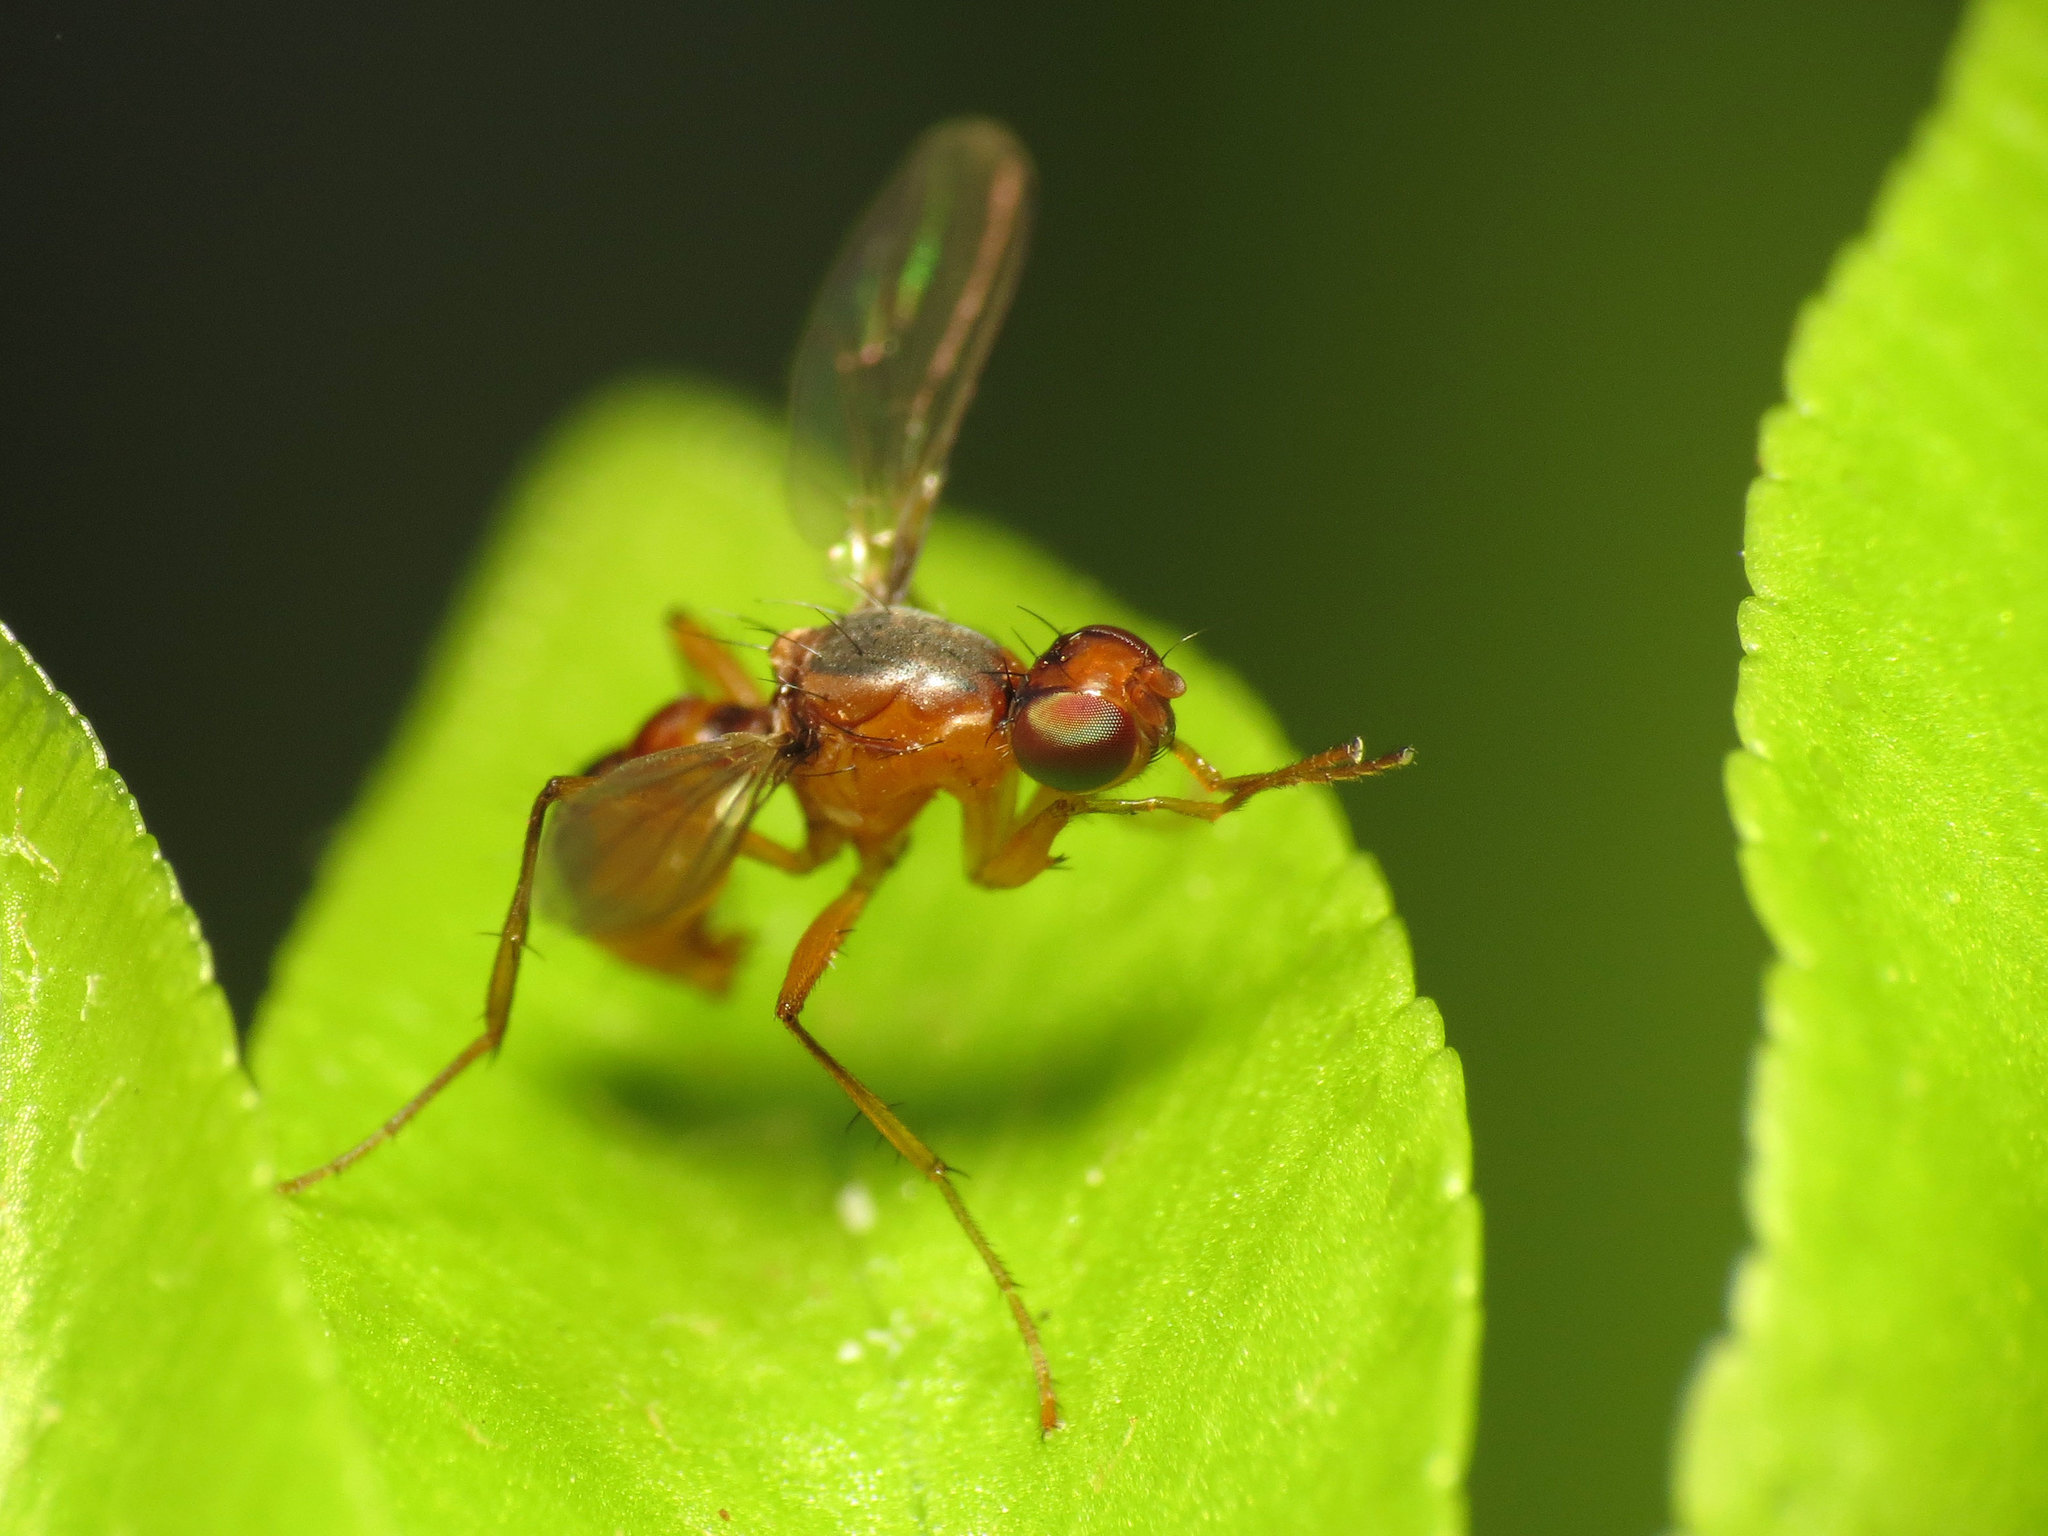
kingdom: Animalia
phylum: Arthropoda
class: Insecta
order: Diptera
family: Sepsidae
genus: Sepsis
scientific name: Sepsis lateralis
